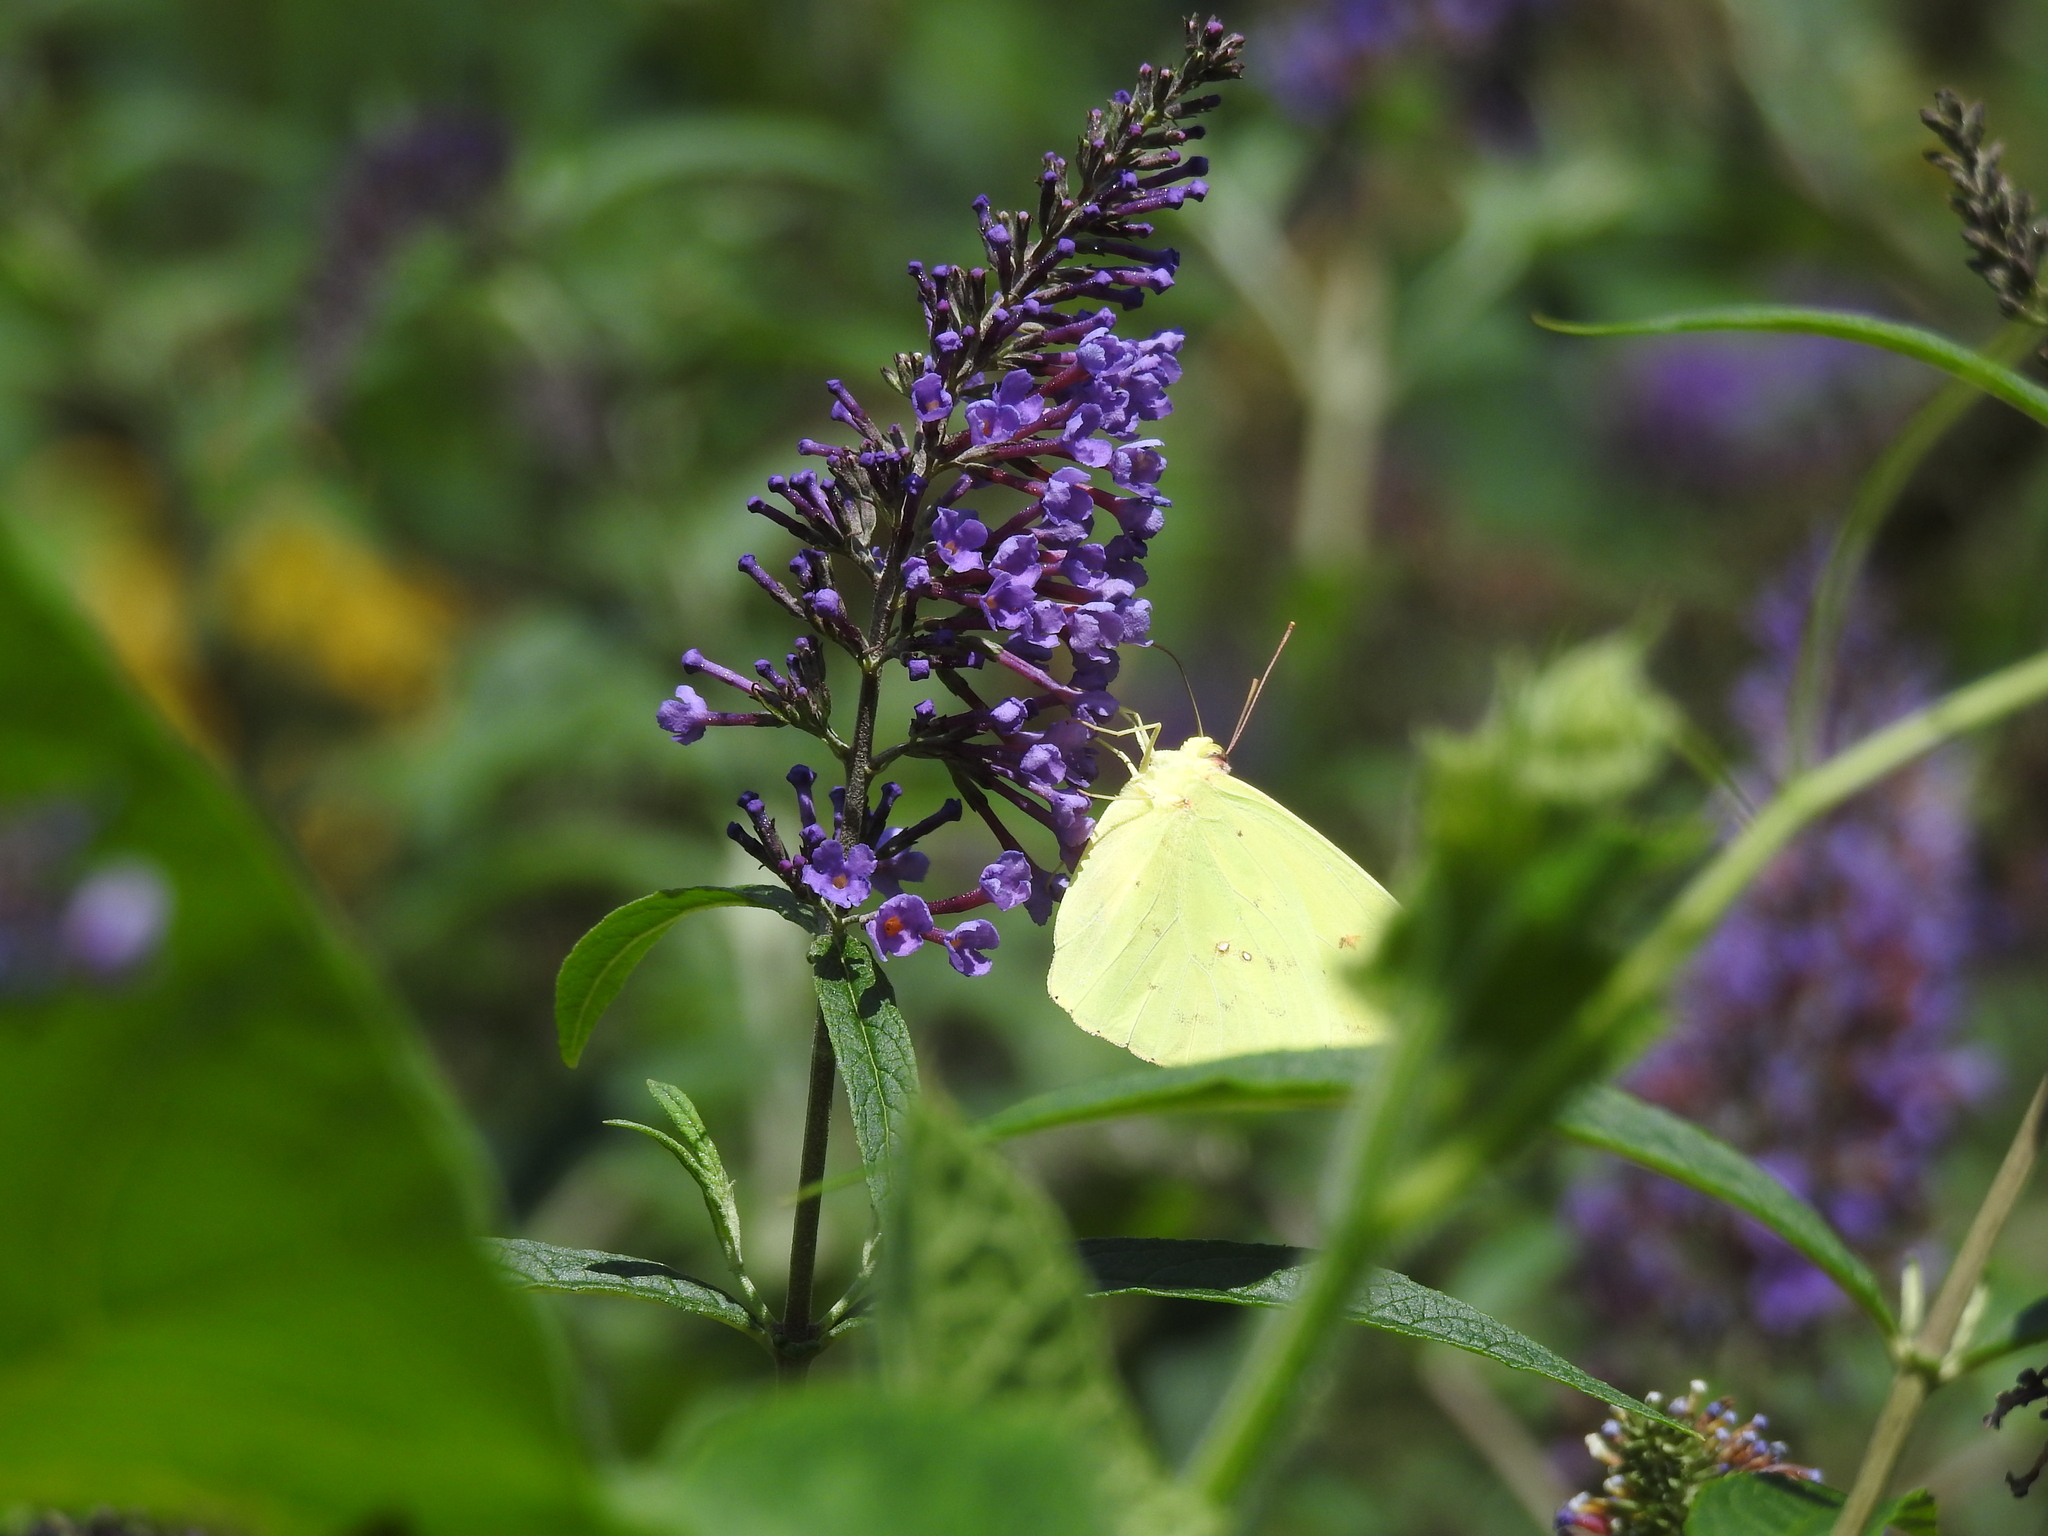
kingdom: Animalia
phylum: Arthropoda
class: Insecta
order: Lepidoptera
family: Pieridae
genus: Phoebis
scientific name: Phoebis sennae
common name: Cloudless sulphur
